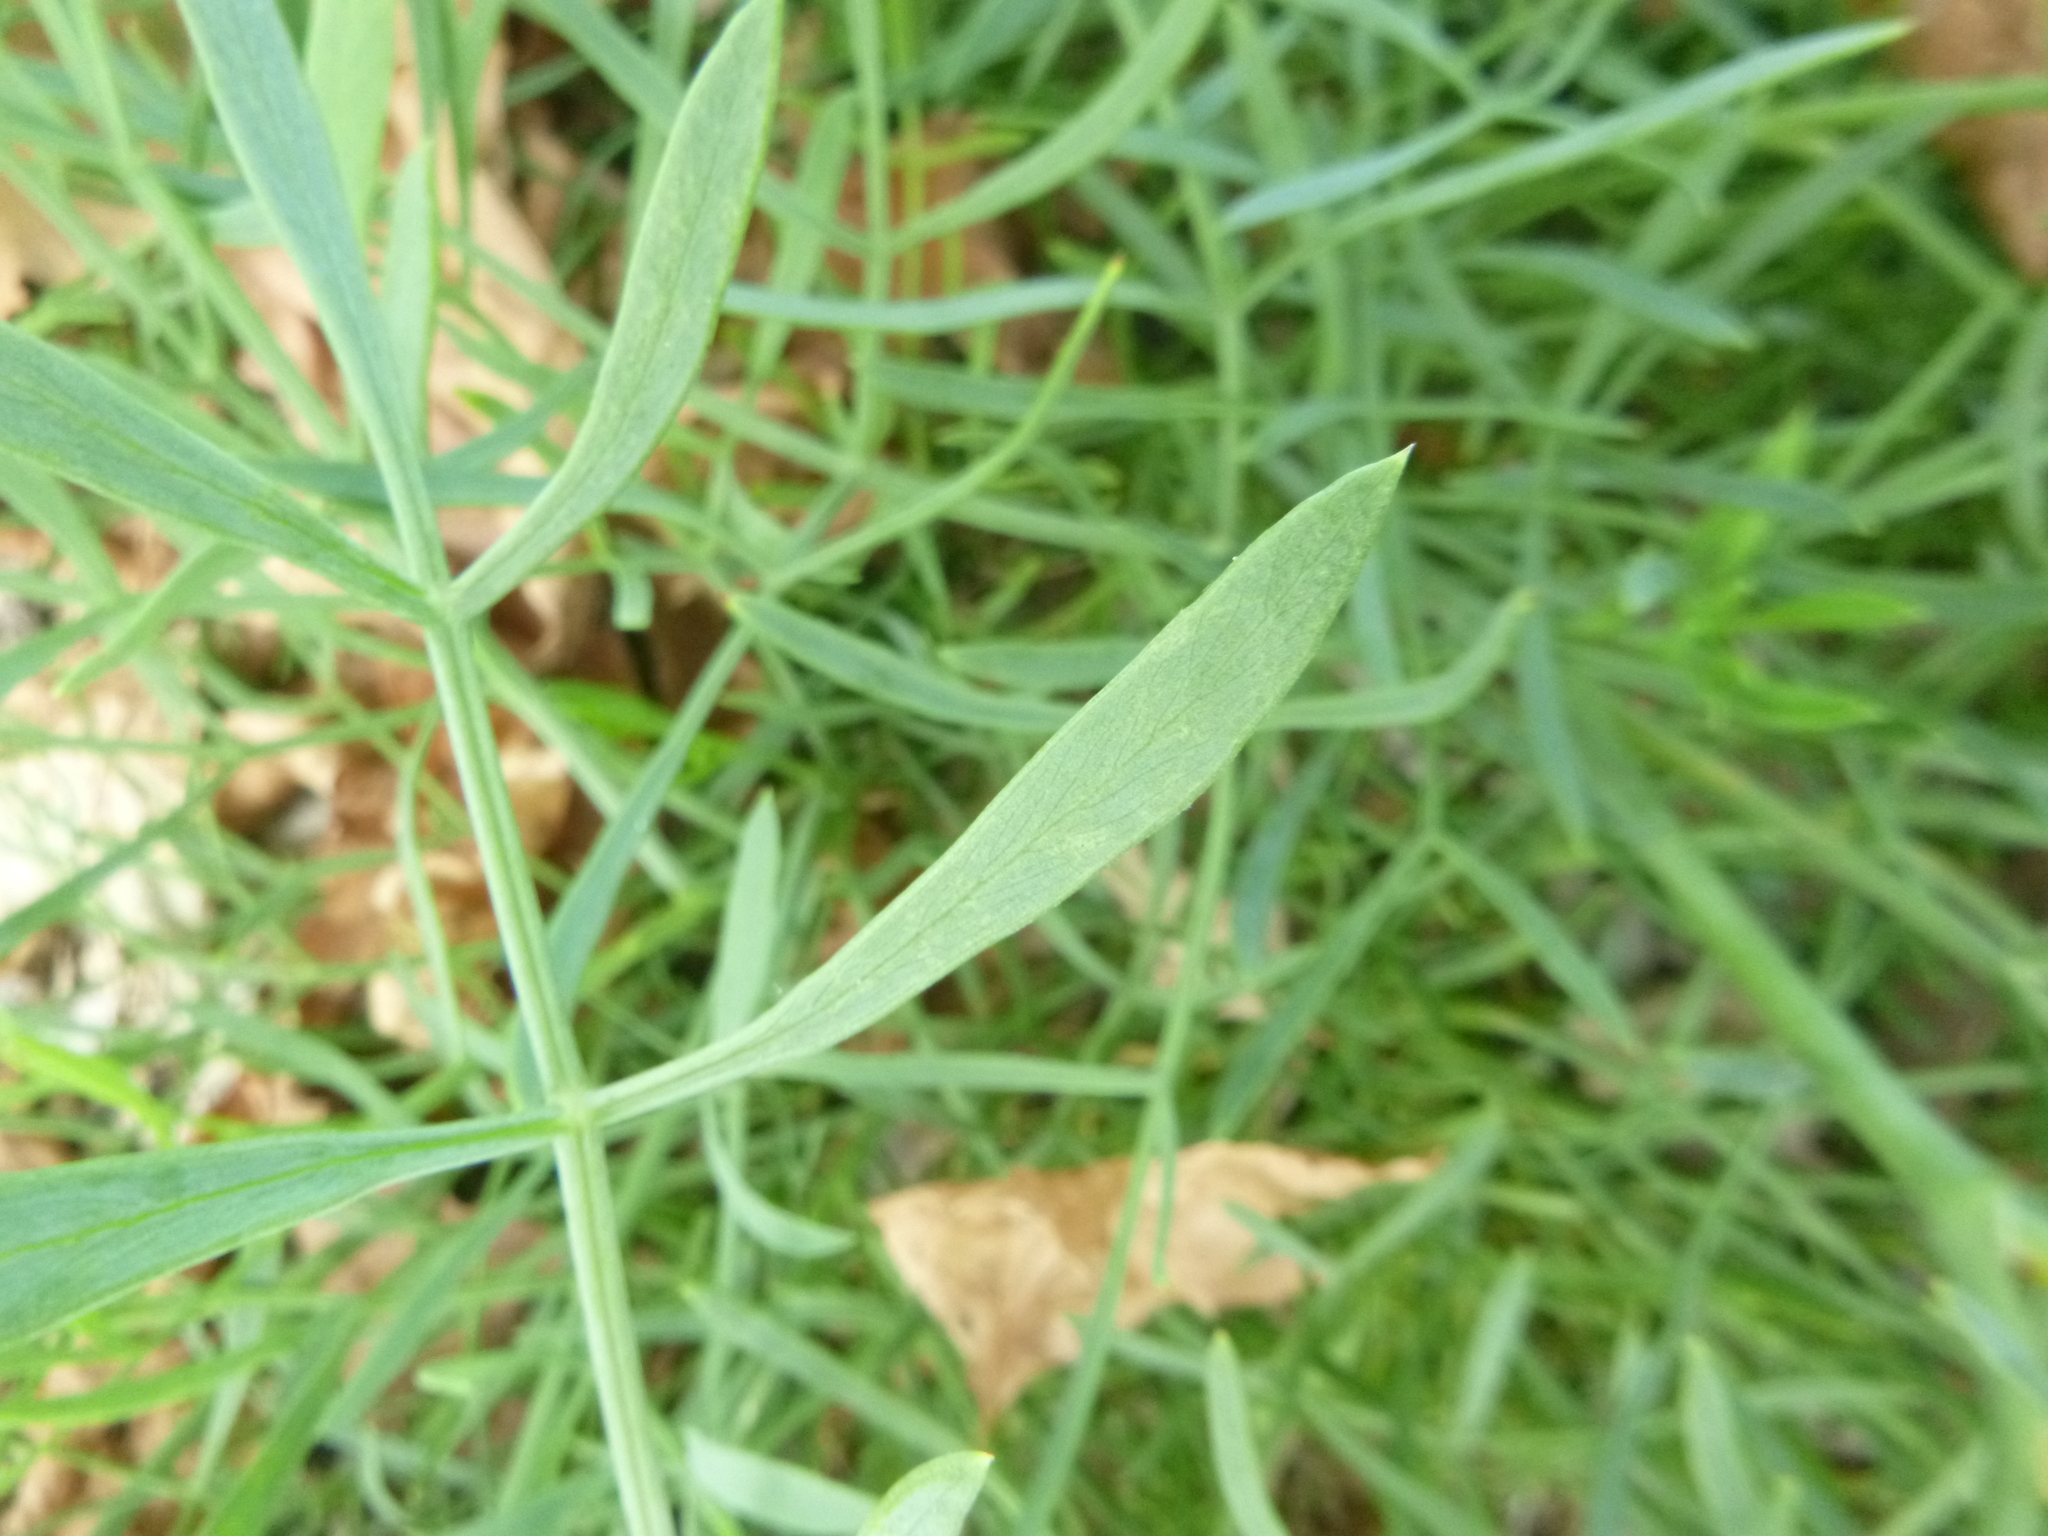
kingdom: Plantae
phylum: Tracheophyta
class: Magnoliopsida
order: Apiales
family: Apiaceae
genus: Crithmum
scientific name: Crithmum maritimum
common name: Rock samphire
